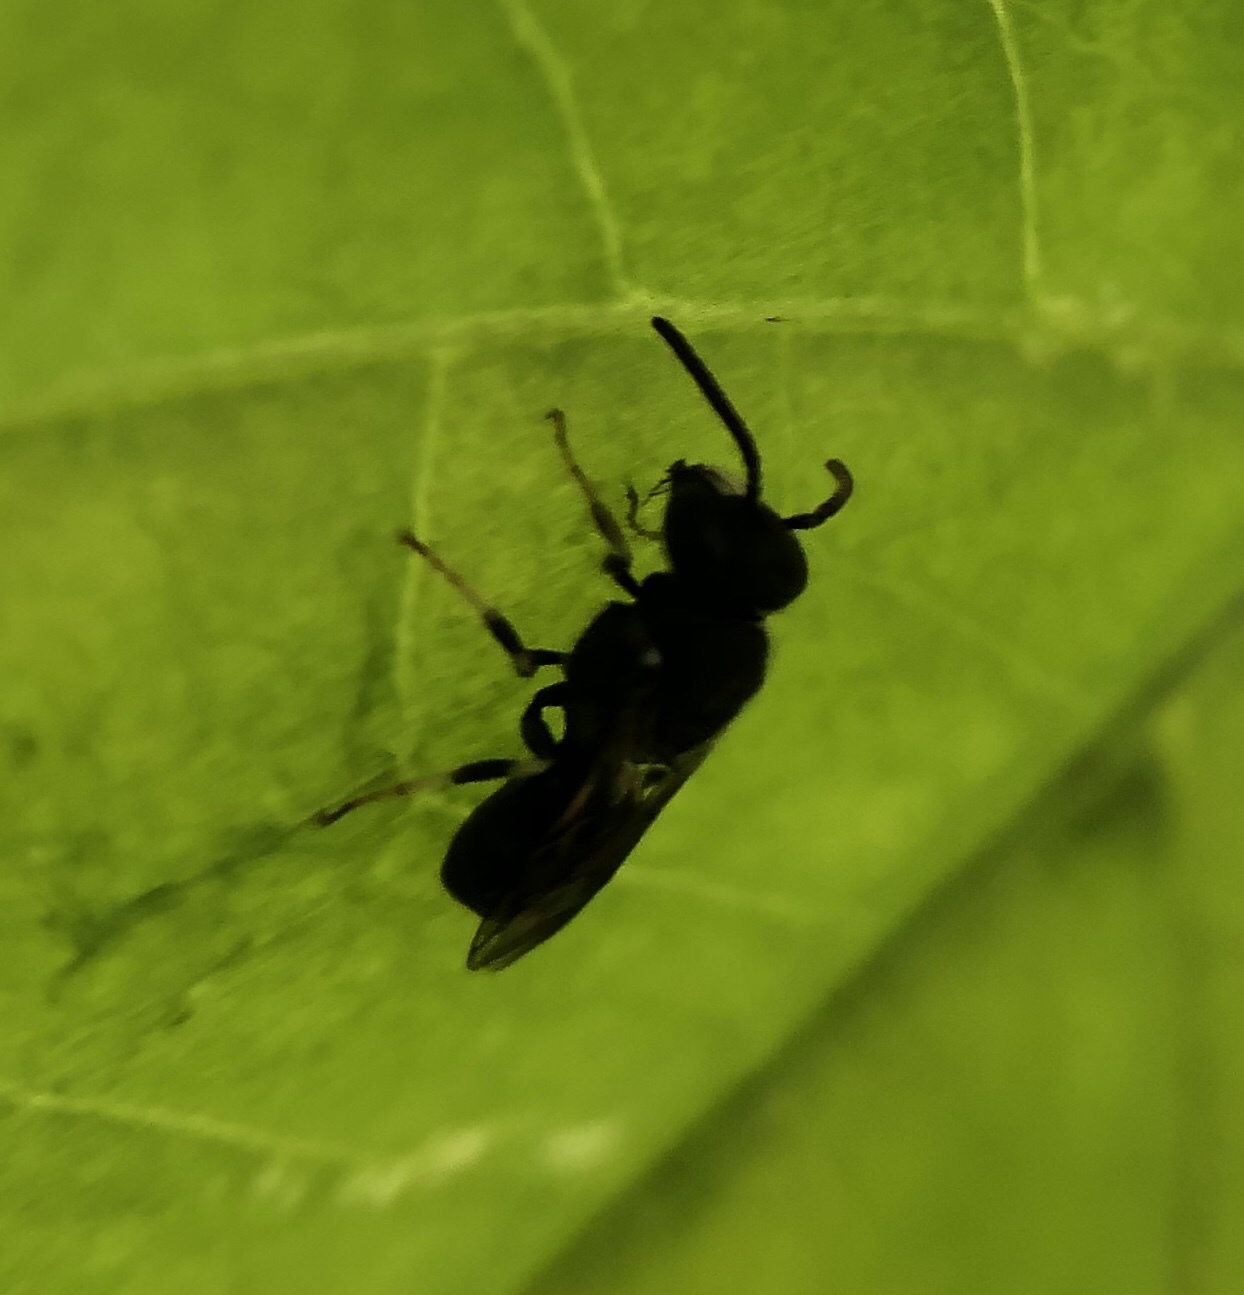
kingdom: Animalia
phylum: Arthropoda
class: Insecta
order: Hymenoptera
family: Colletidae
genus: Hylaeus
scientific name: Hylaeus punctatus
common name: Punctate masked bee
